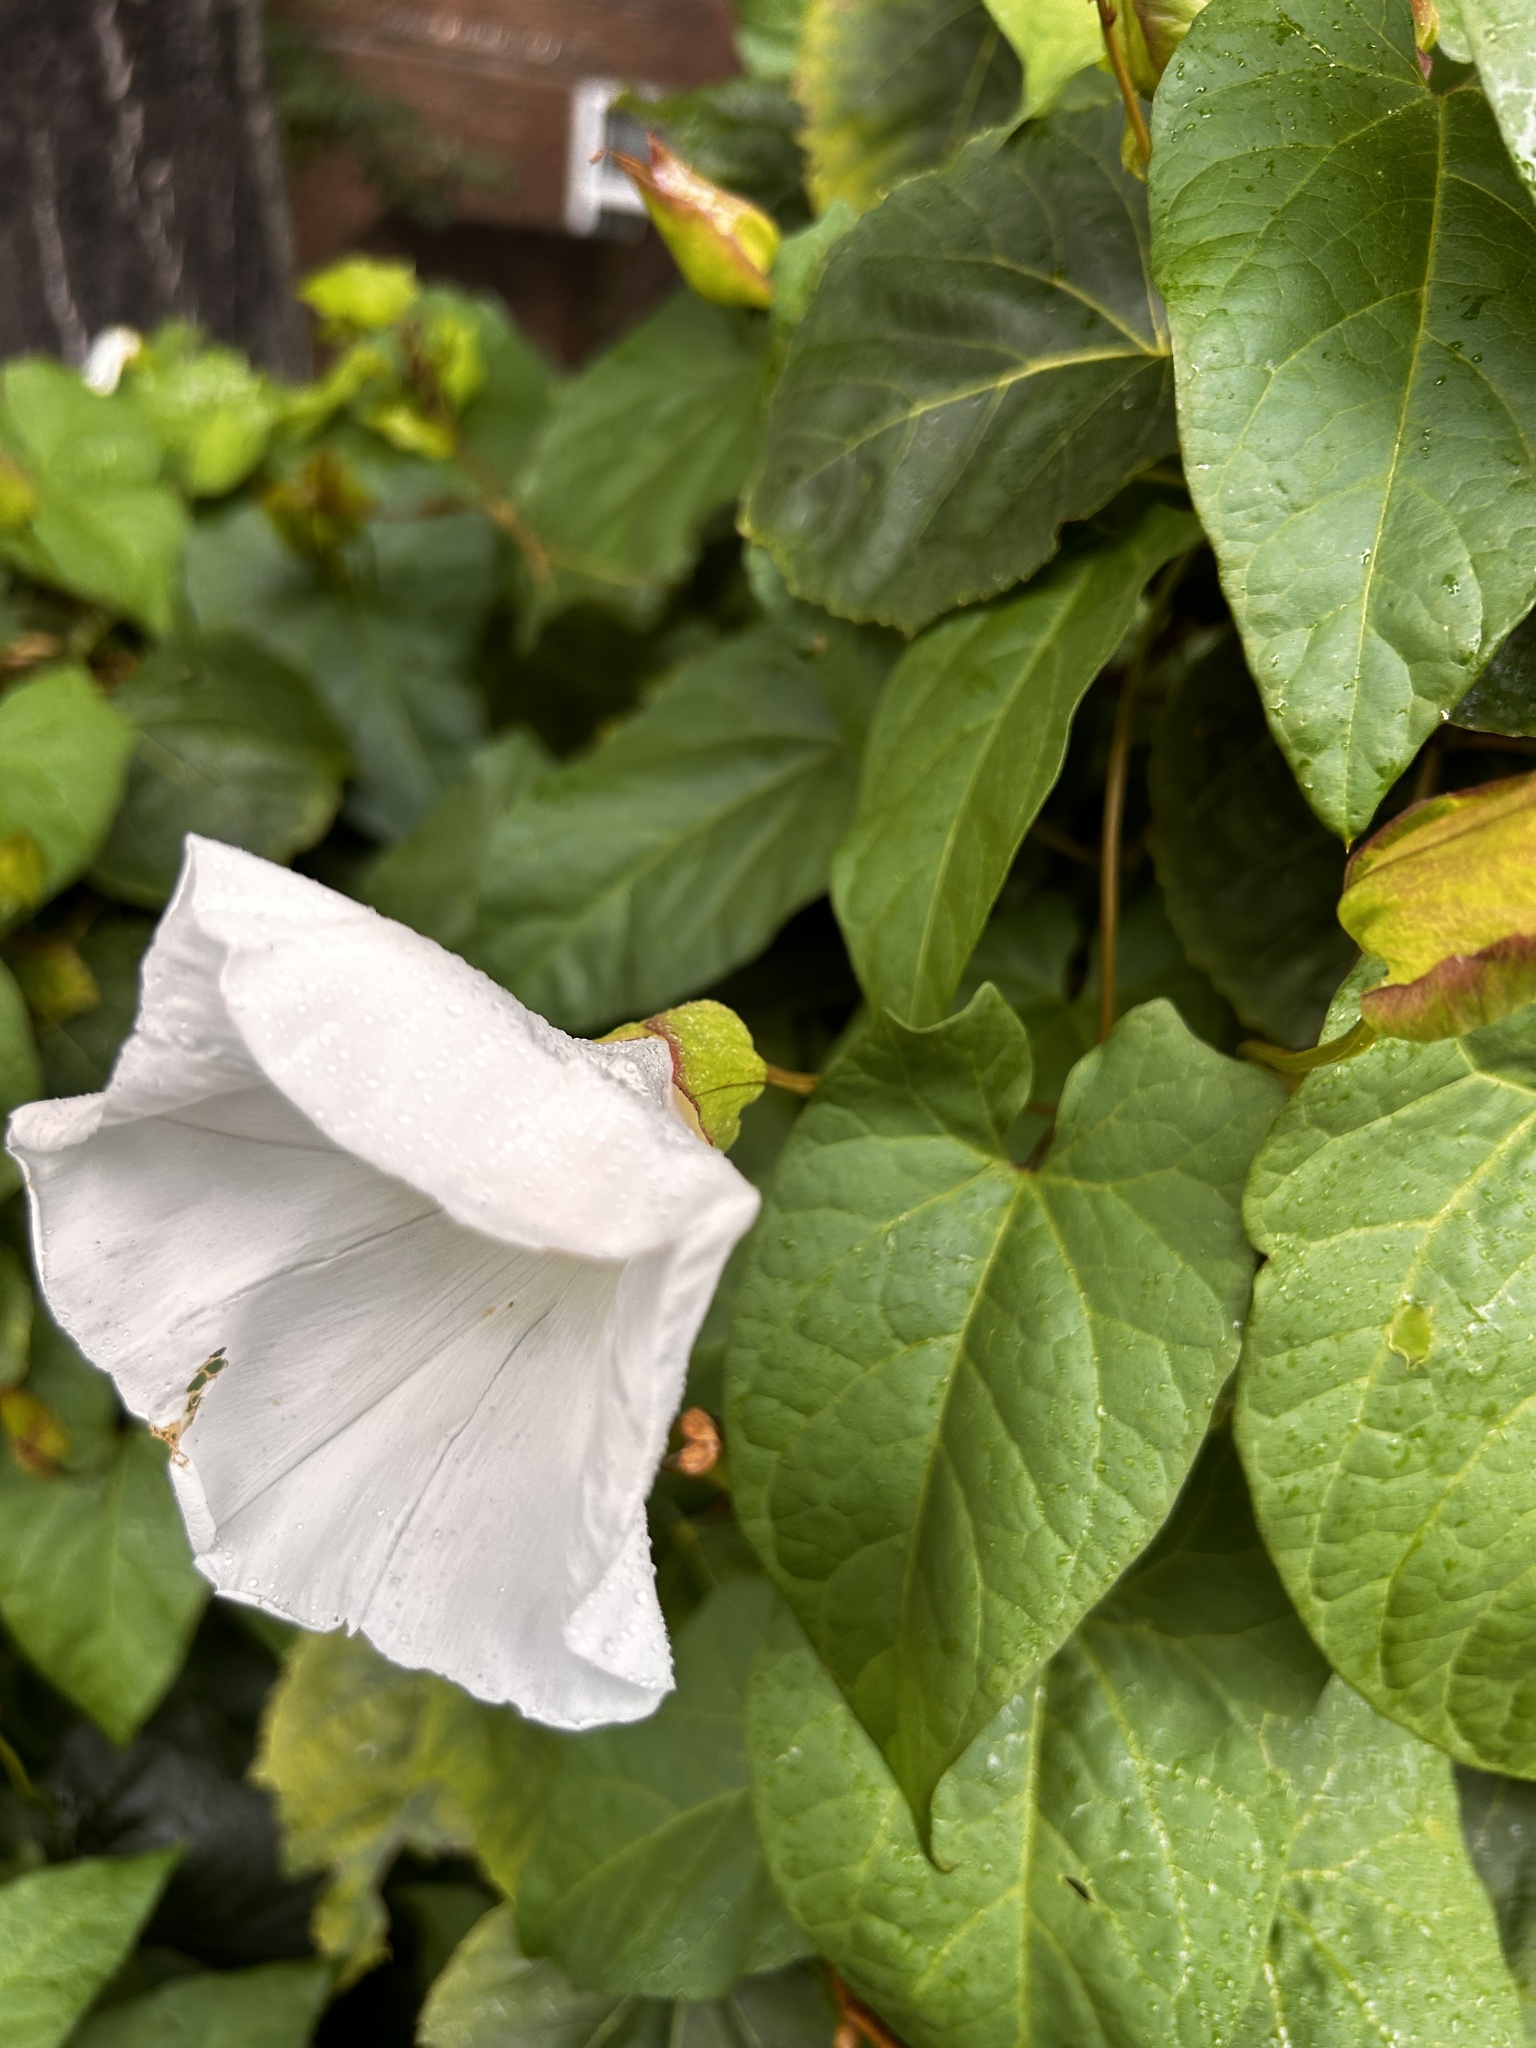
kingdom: Plantae
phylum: Tracheophyta
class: Magnoliopsida
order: Solanales
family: Convolvulaceae
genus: Calystegia
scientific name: Calystegia silvatica
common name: Large bindweed
